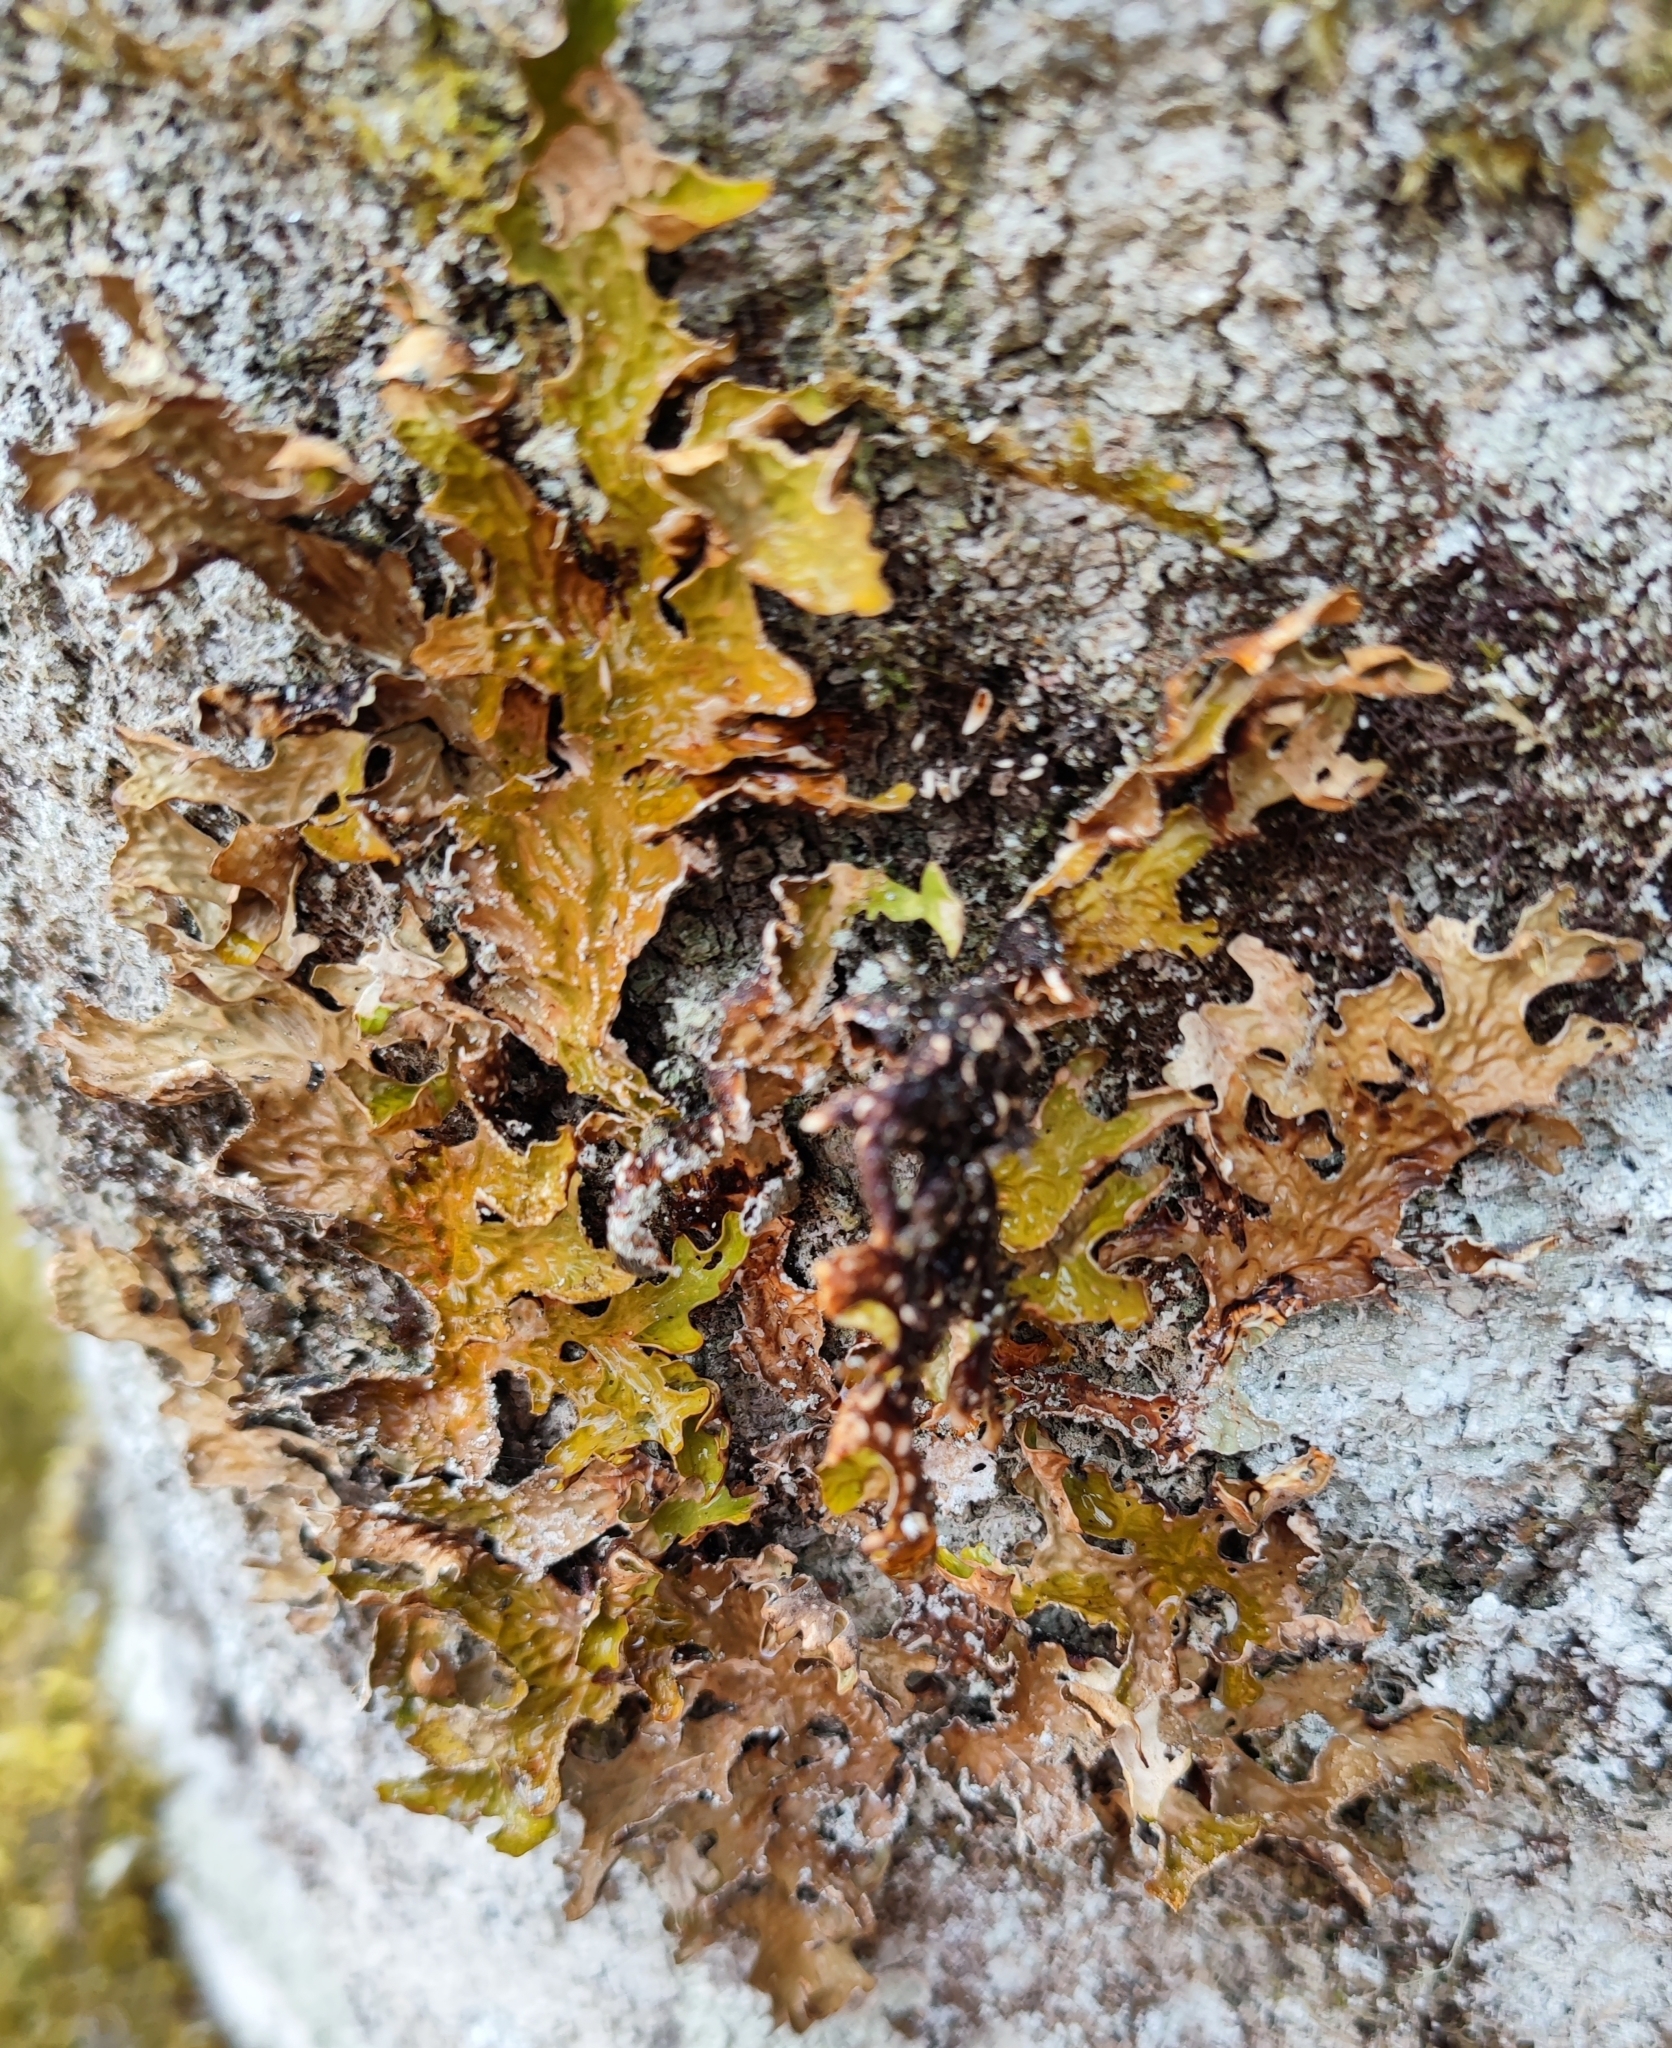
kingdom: Fungi
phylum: Ascomycota
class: Lecanoromycetes
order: Peltigerales
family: Lobariaceae
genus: Lobaria
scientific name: Lobaria pulmonaria
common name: Lungwort
